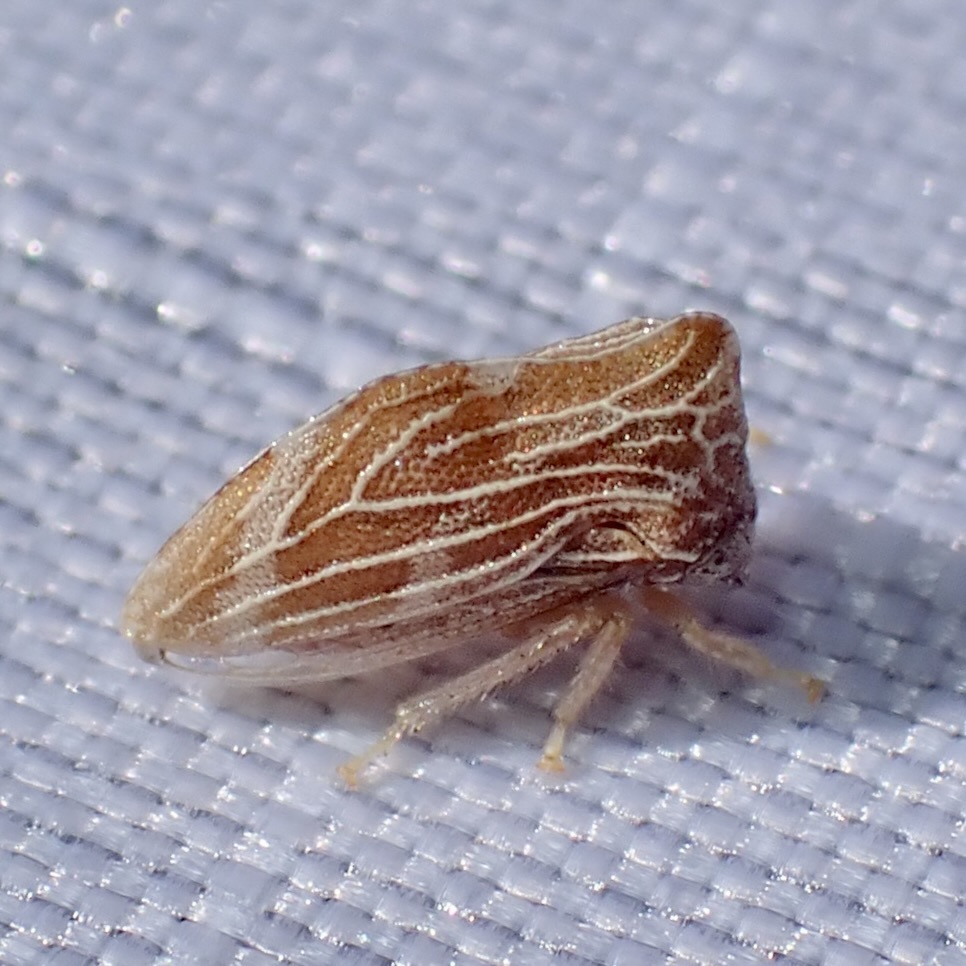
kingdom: Animalia
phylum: Arthropoda
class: Insecta
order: Hemiptera
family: Membracidae
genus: Publilia
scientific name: Publilia erecta
